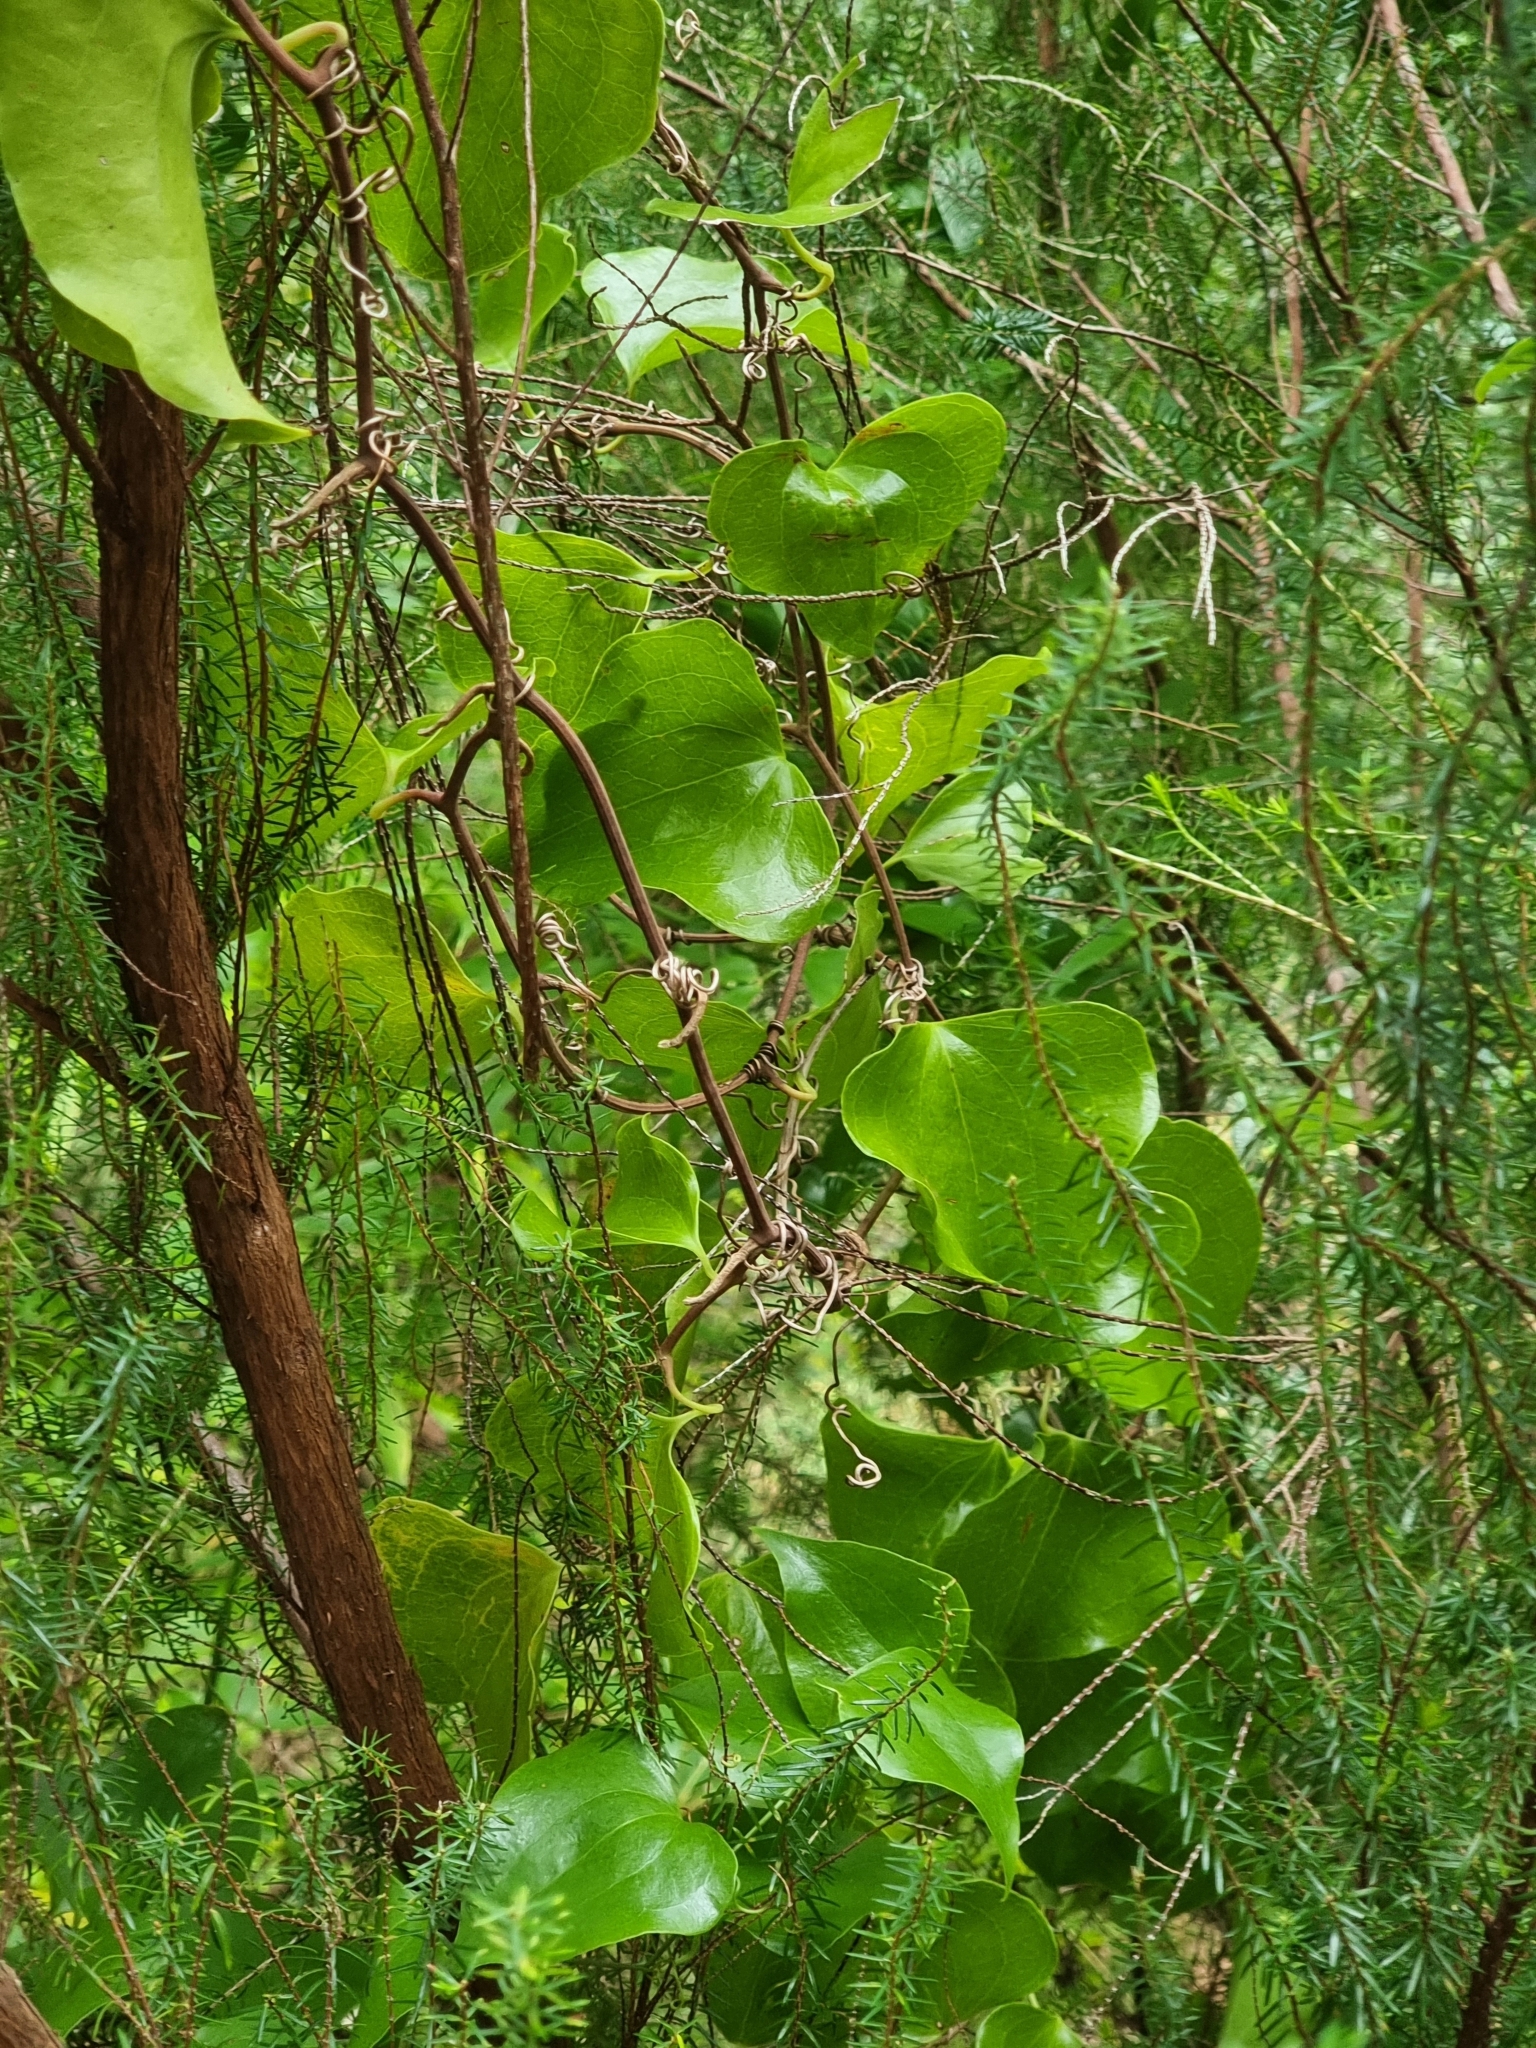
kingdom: Plantae
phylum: Tracheophyta
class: Liliopsida
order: Liliales
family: Smilacaceae
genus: Smilax
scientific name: Smilax aspera
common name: Common smilax
